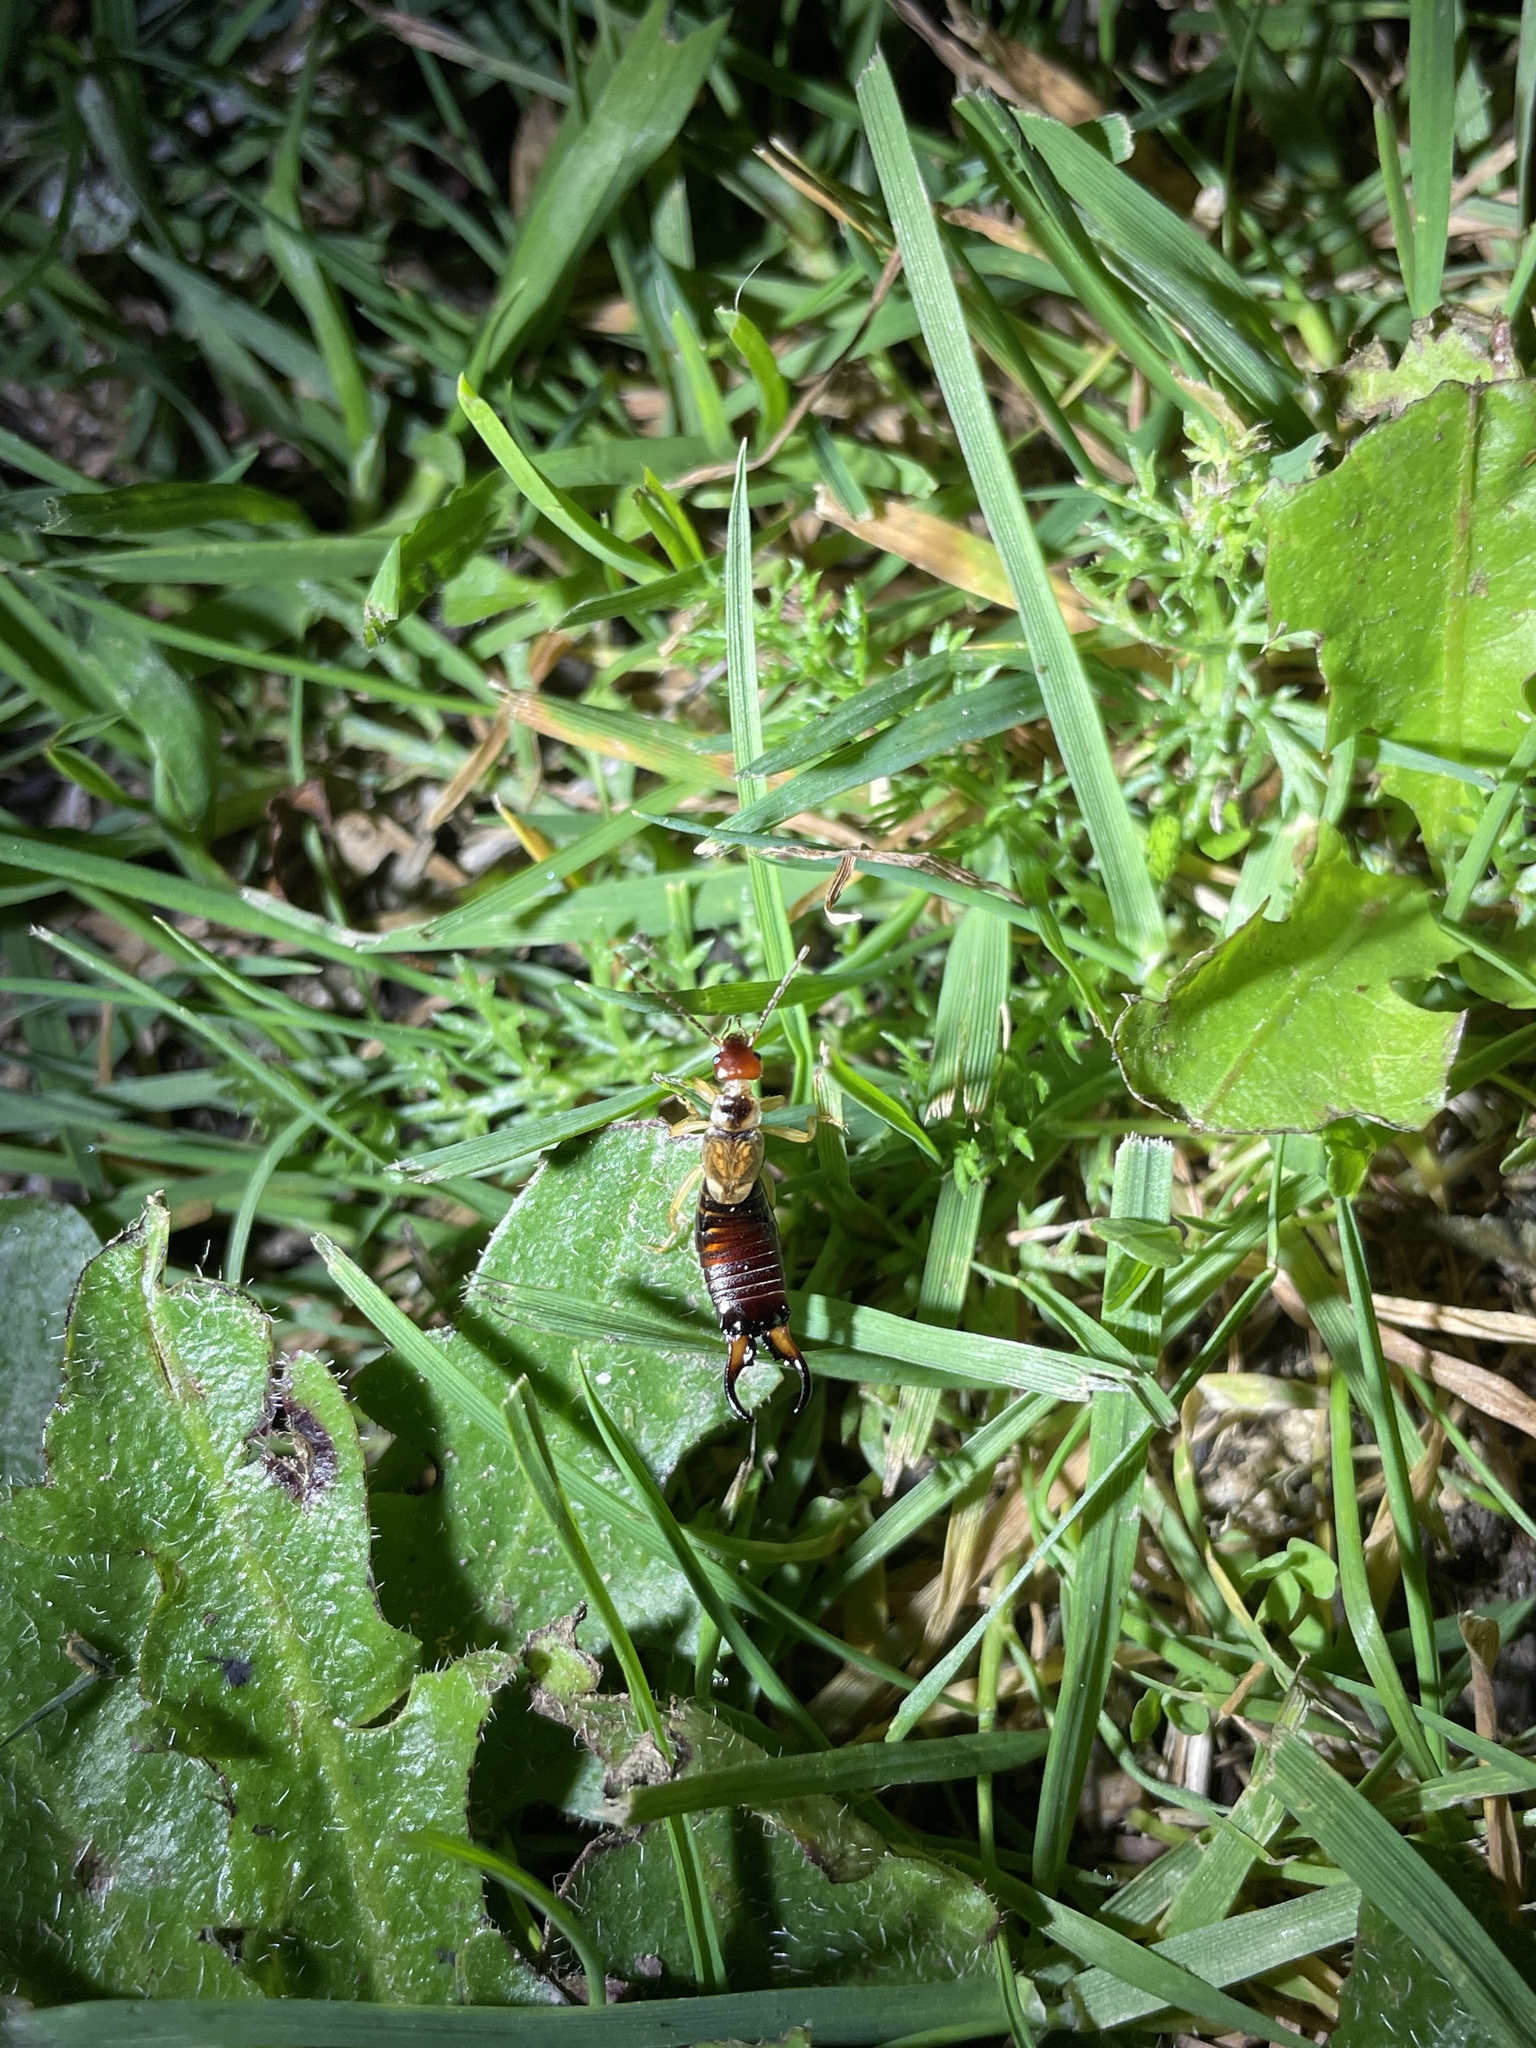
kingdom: Animalia
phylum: Arthropoda
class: Insecta
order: Dermaptera
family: Forficulidae
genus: Forficula
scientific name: Forficula dentata
